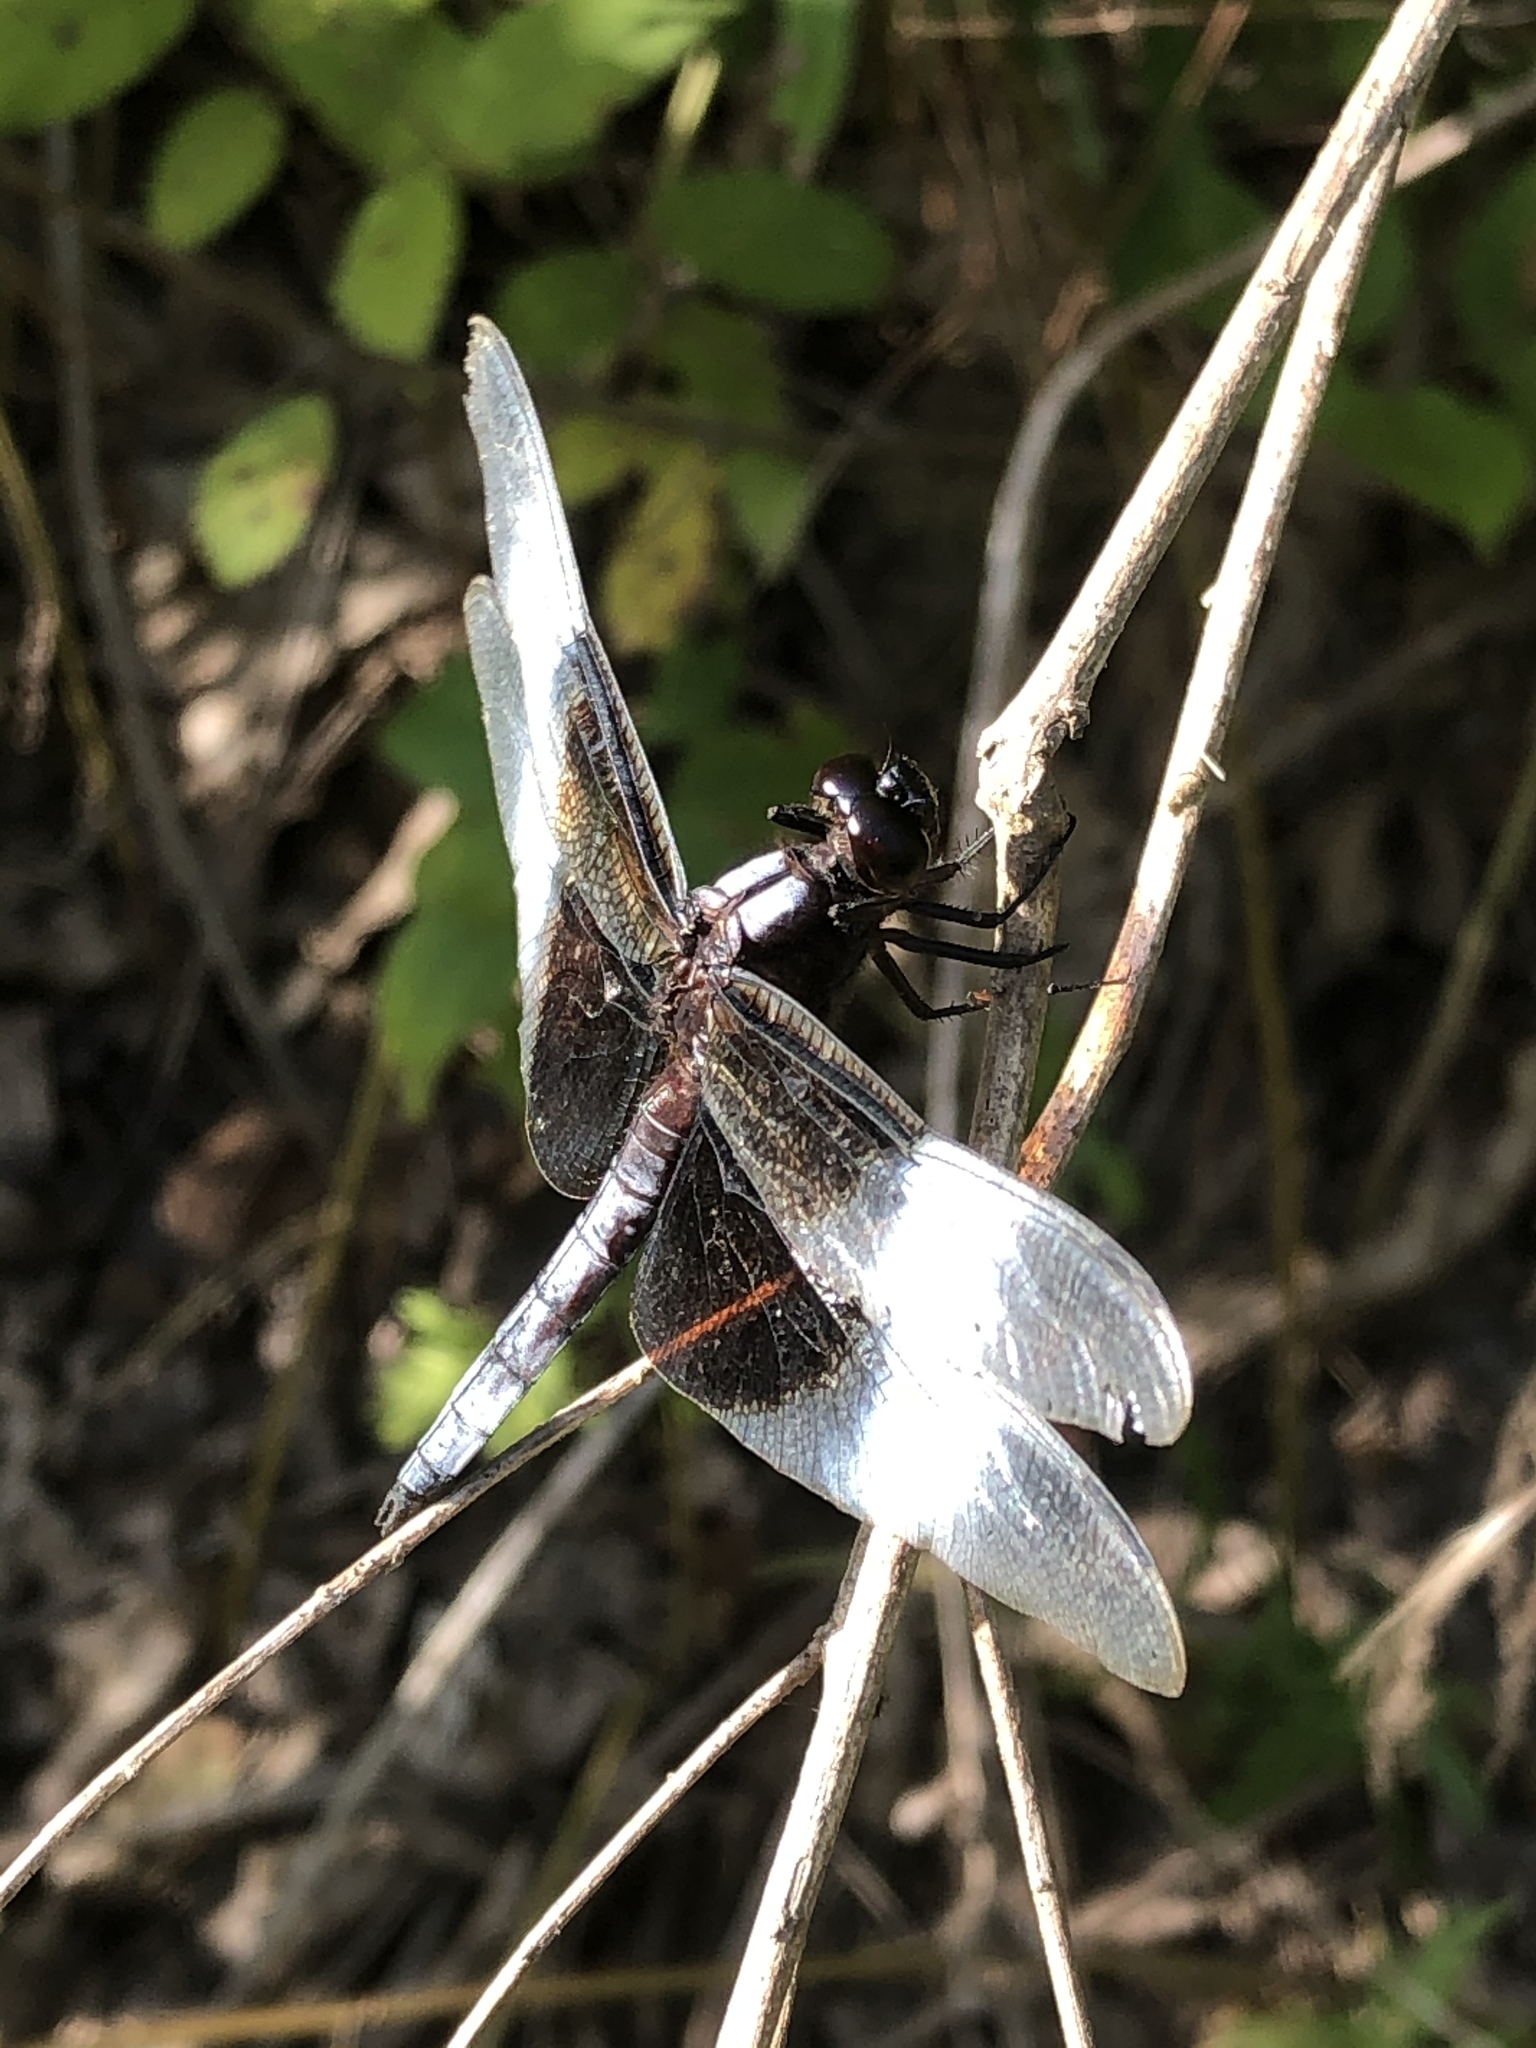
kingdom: Animalia
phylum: Arthropoda
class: Insecta
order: Odonata
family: Libellulidae
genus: Libellula
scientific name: Libellula luctuosa
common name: Widow skimmer
